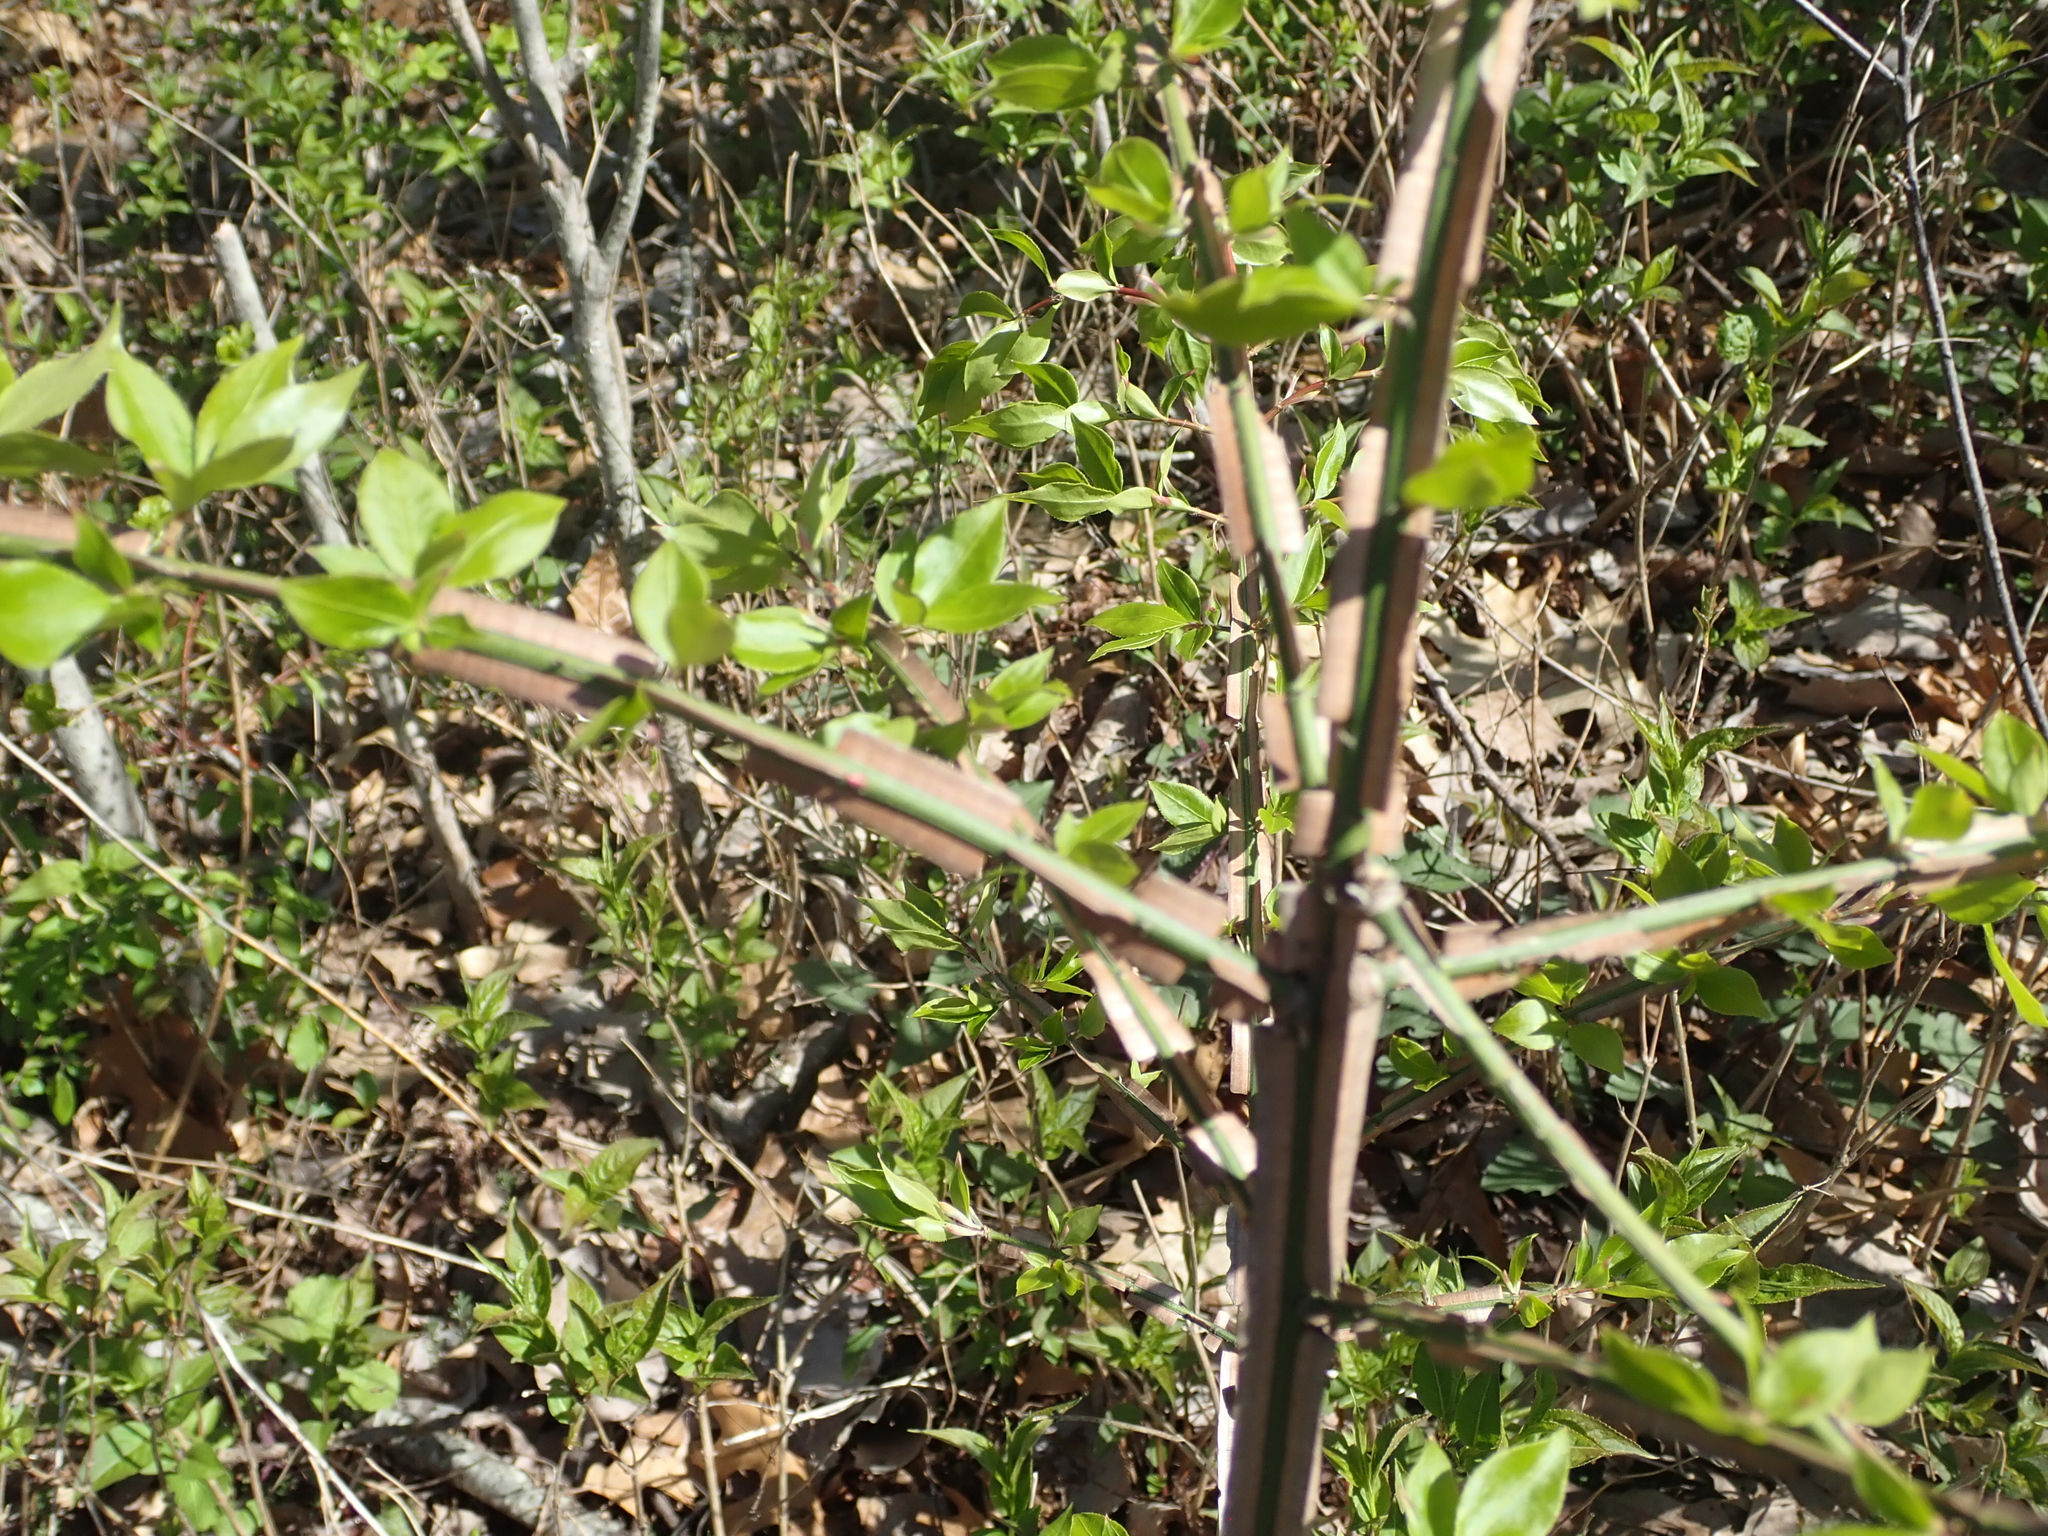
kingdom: Plantae
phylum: Tracheophyta
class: Magnoliopsida
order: Celastrales
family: Celastraceae
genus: Euonymus
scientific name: Euonymus alatus
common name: Winged euonymus
